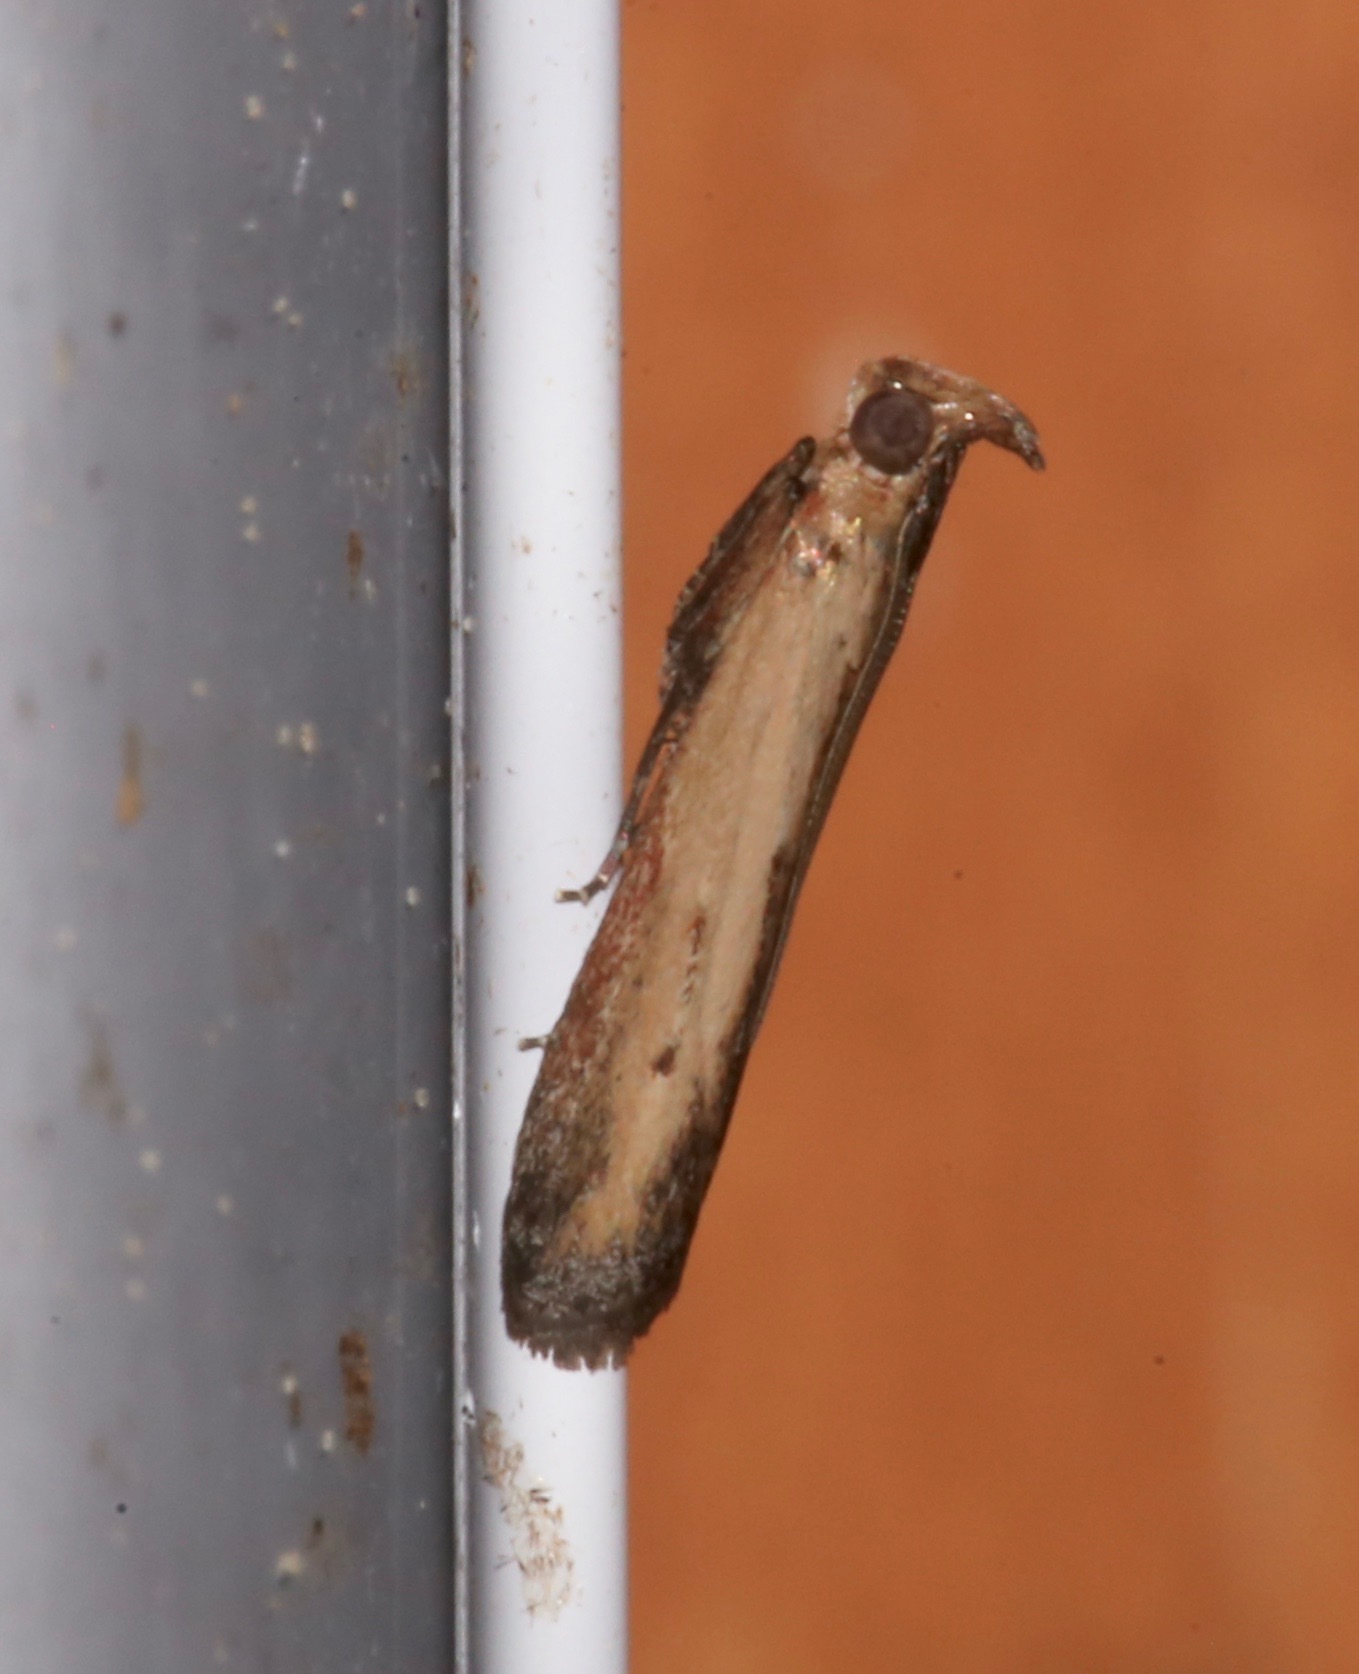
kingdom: Animalia
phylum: Arthropoda
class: Insecta
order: Lepidoptera
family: Pyralidae
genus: Elasmopalpus
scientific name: Elasmopalpus lignosella
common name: Lesser cornstalk borer
